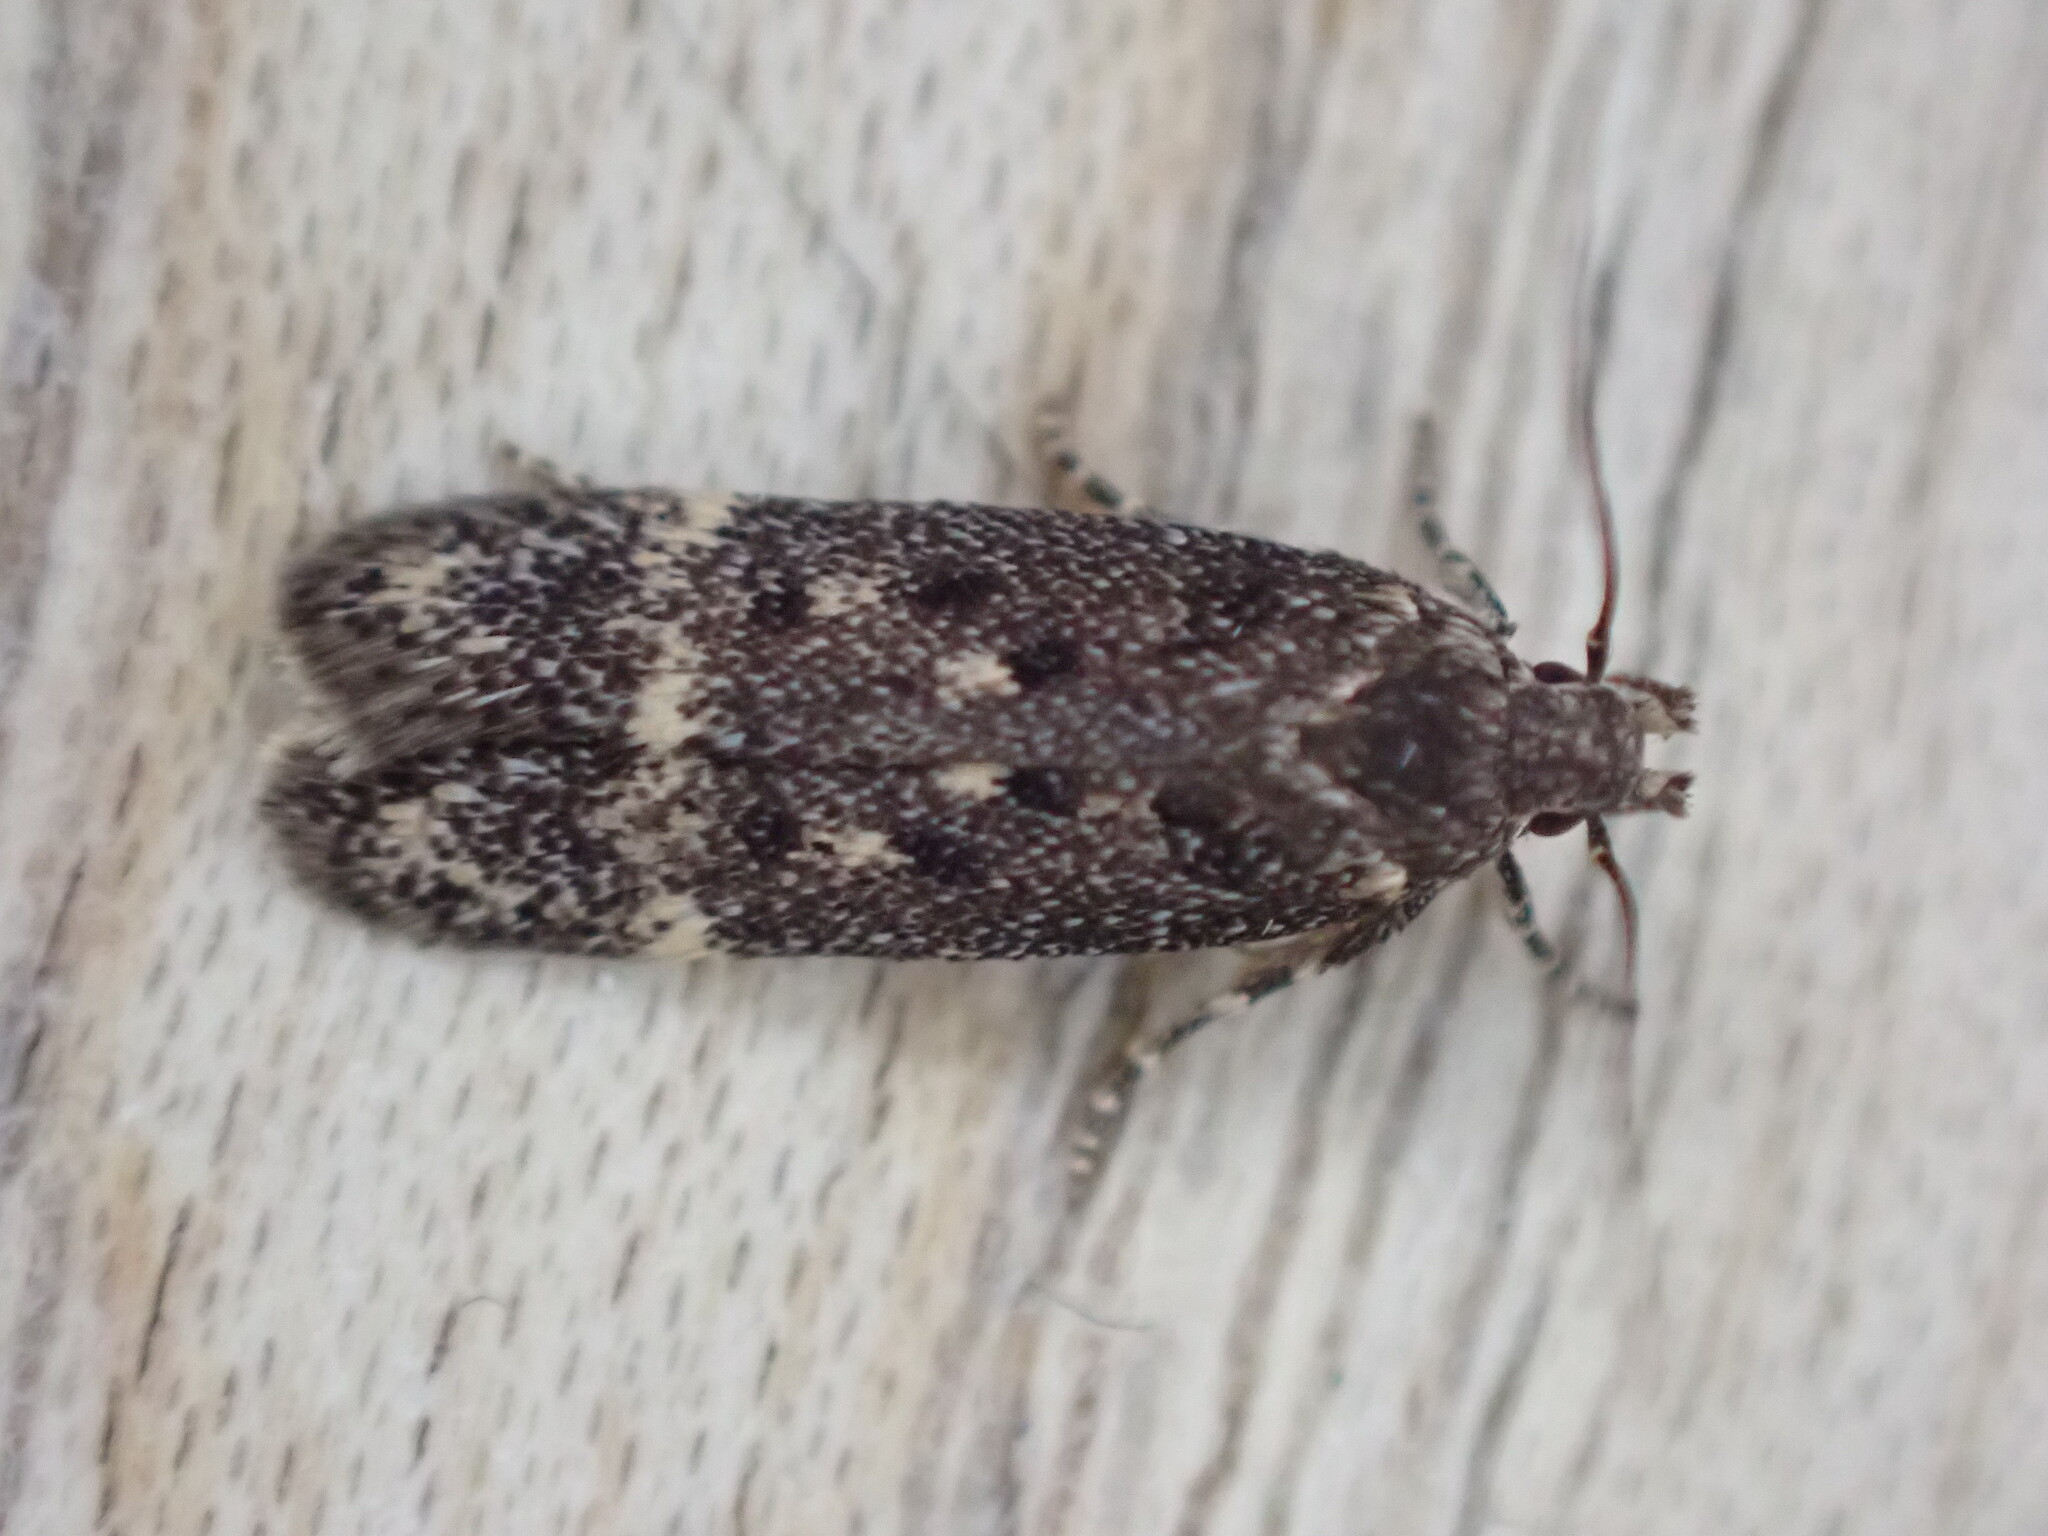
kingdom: Animalia
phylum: Arthropoda
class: Insecta
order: Lepidoptera
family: Gelechiidae
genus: Bryotropha
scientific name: Bryotropha affinis
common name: Dark groundling
